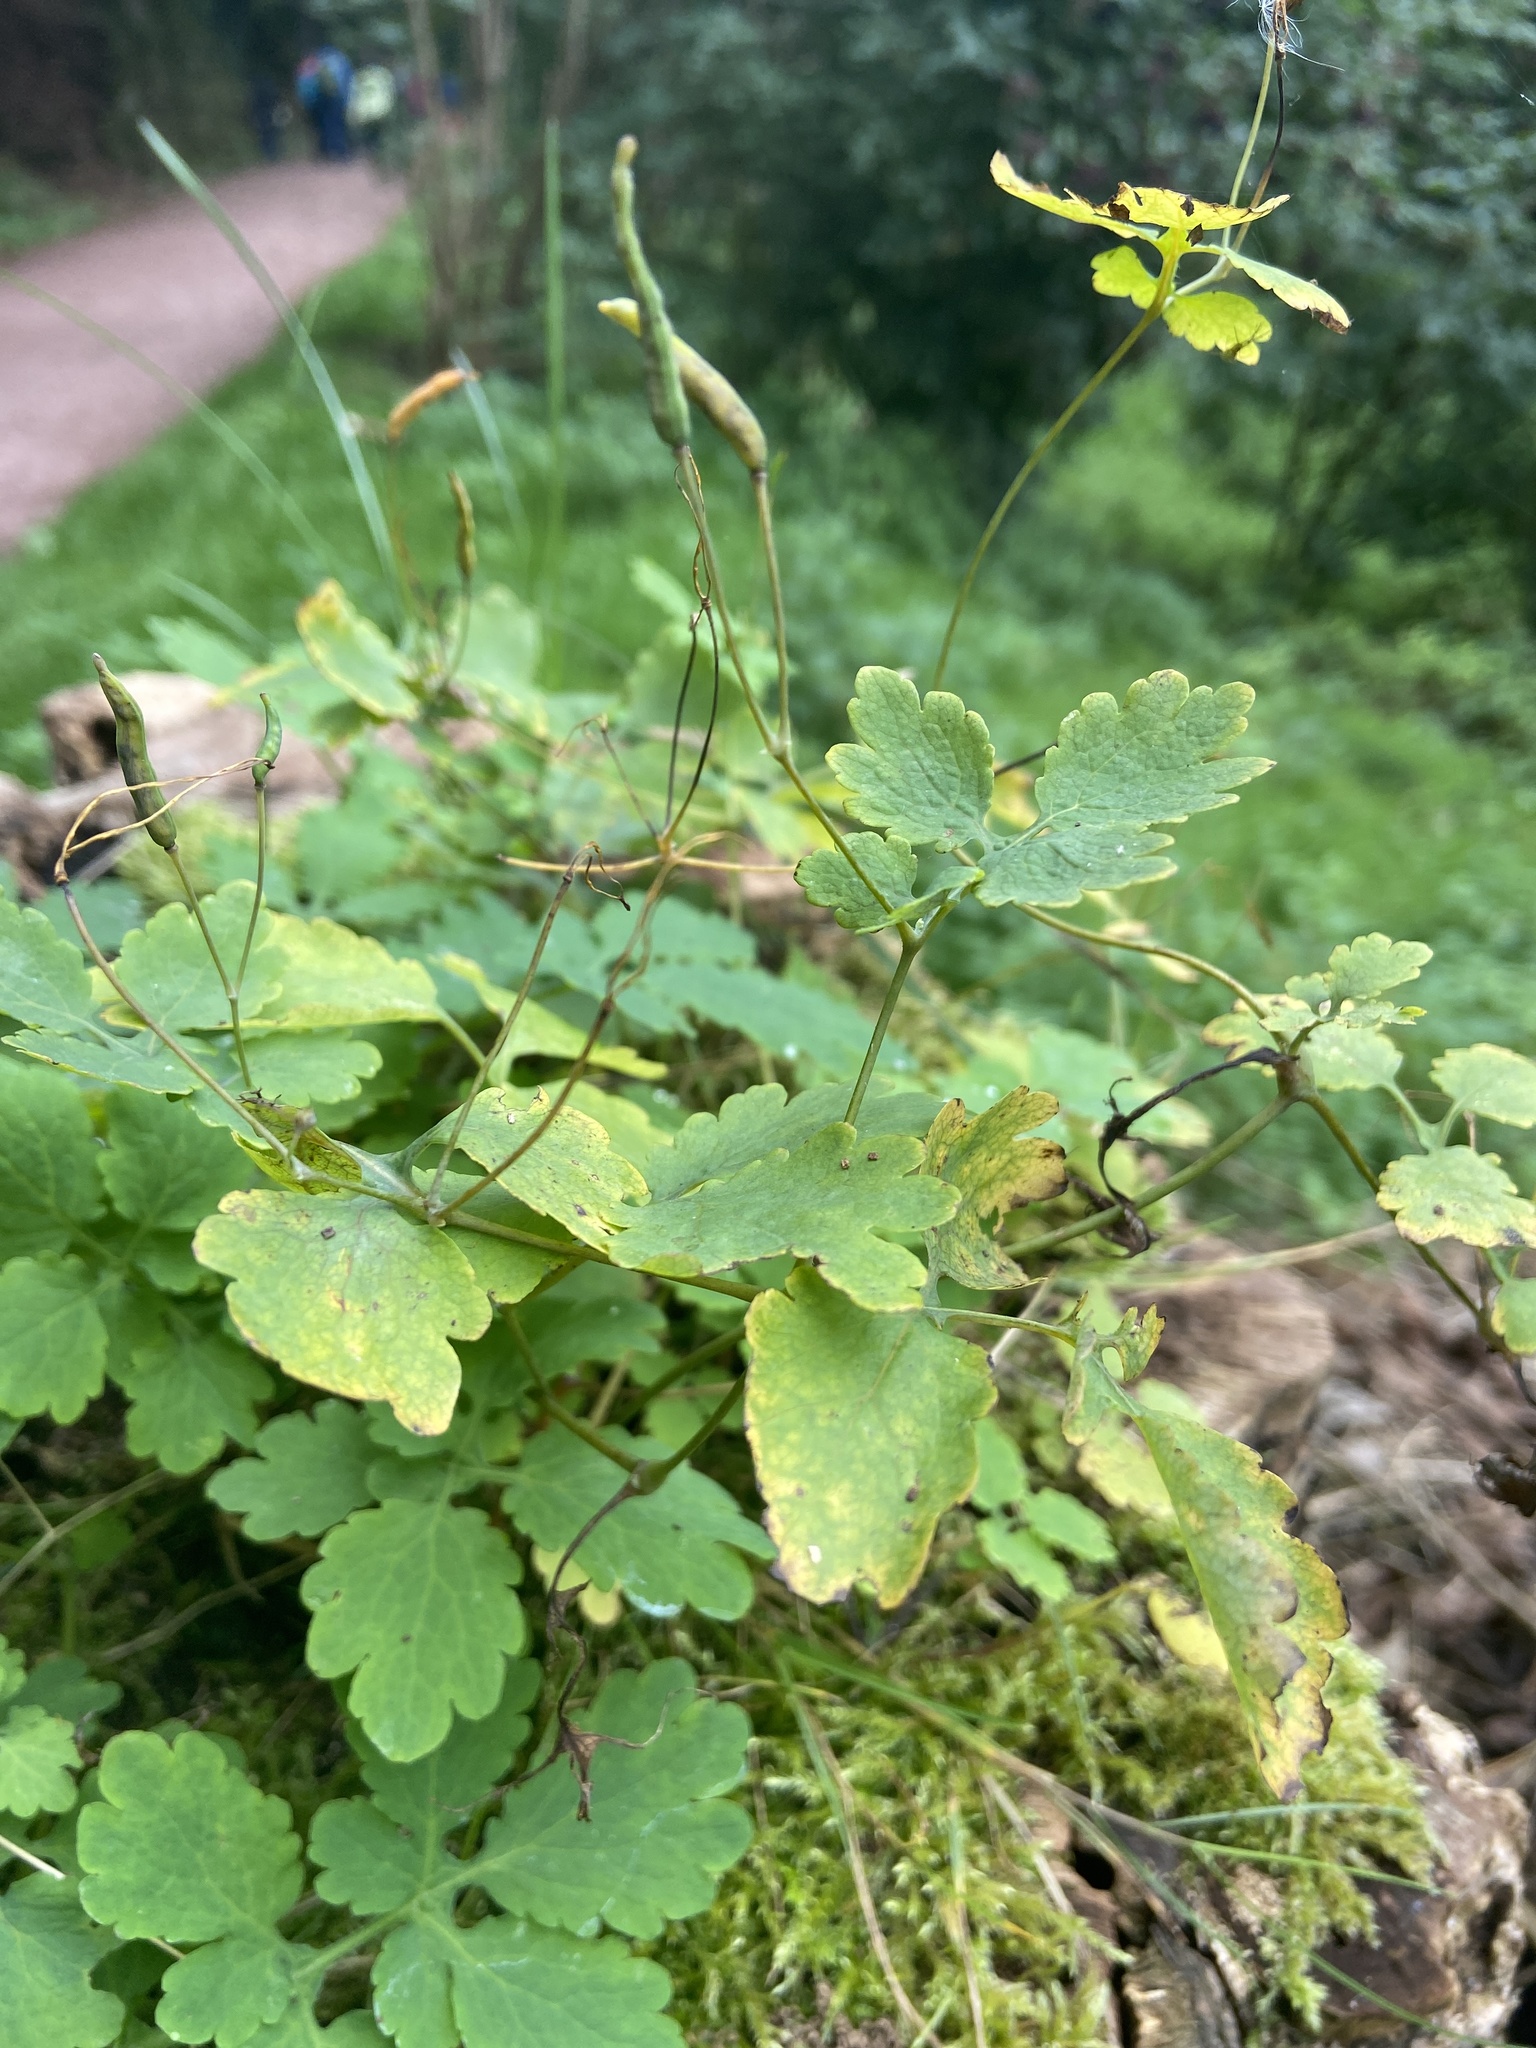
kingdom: Plantae
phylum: Tracheophyta
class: Magnoliopsida
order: Ranunculales
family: Papaveraceae
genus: Chelidonium
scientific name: Chelidonium majus
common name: Greater celandine
